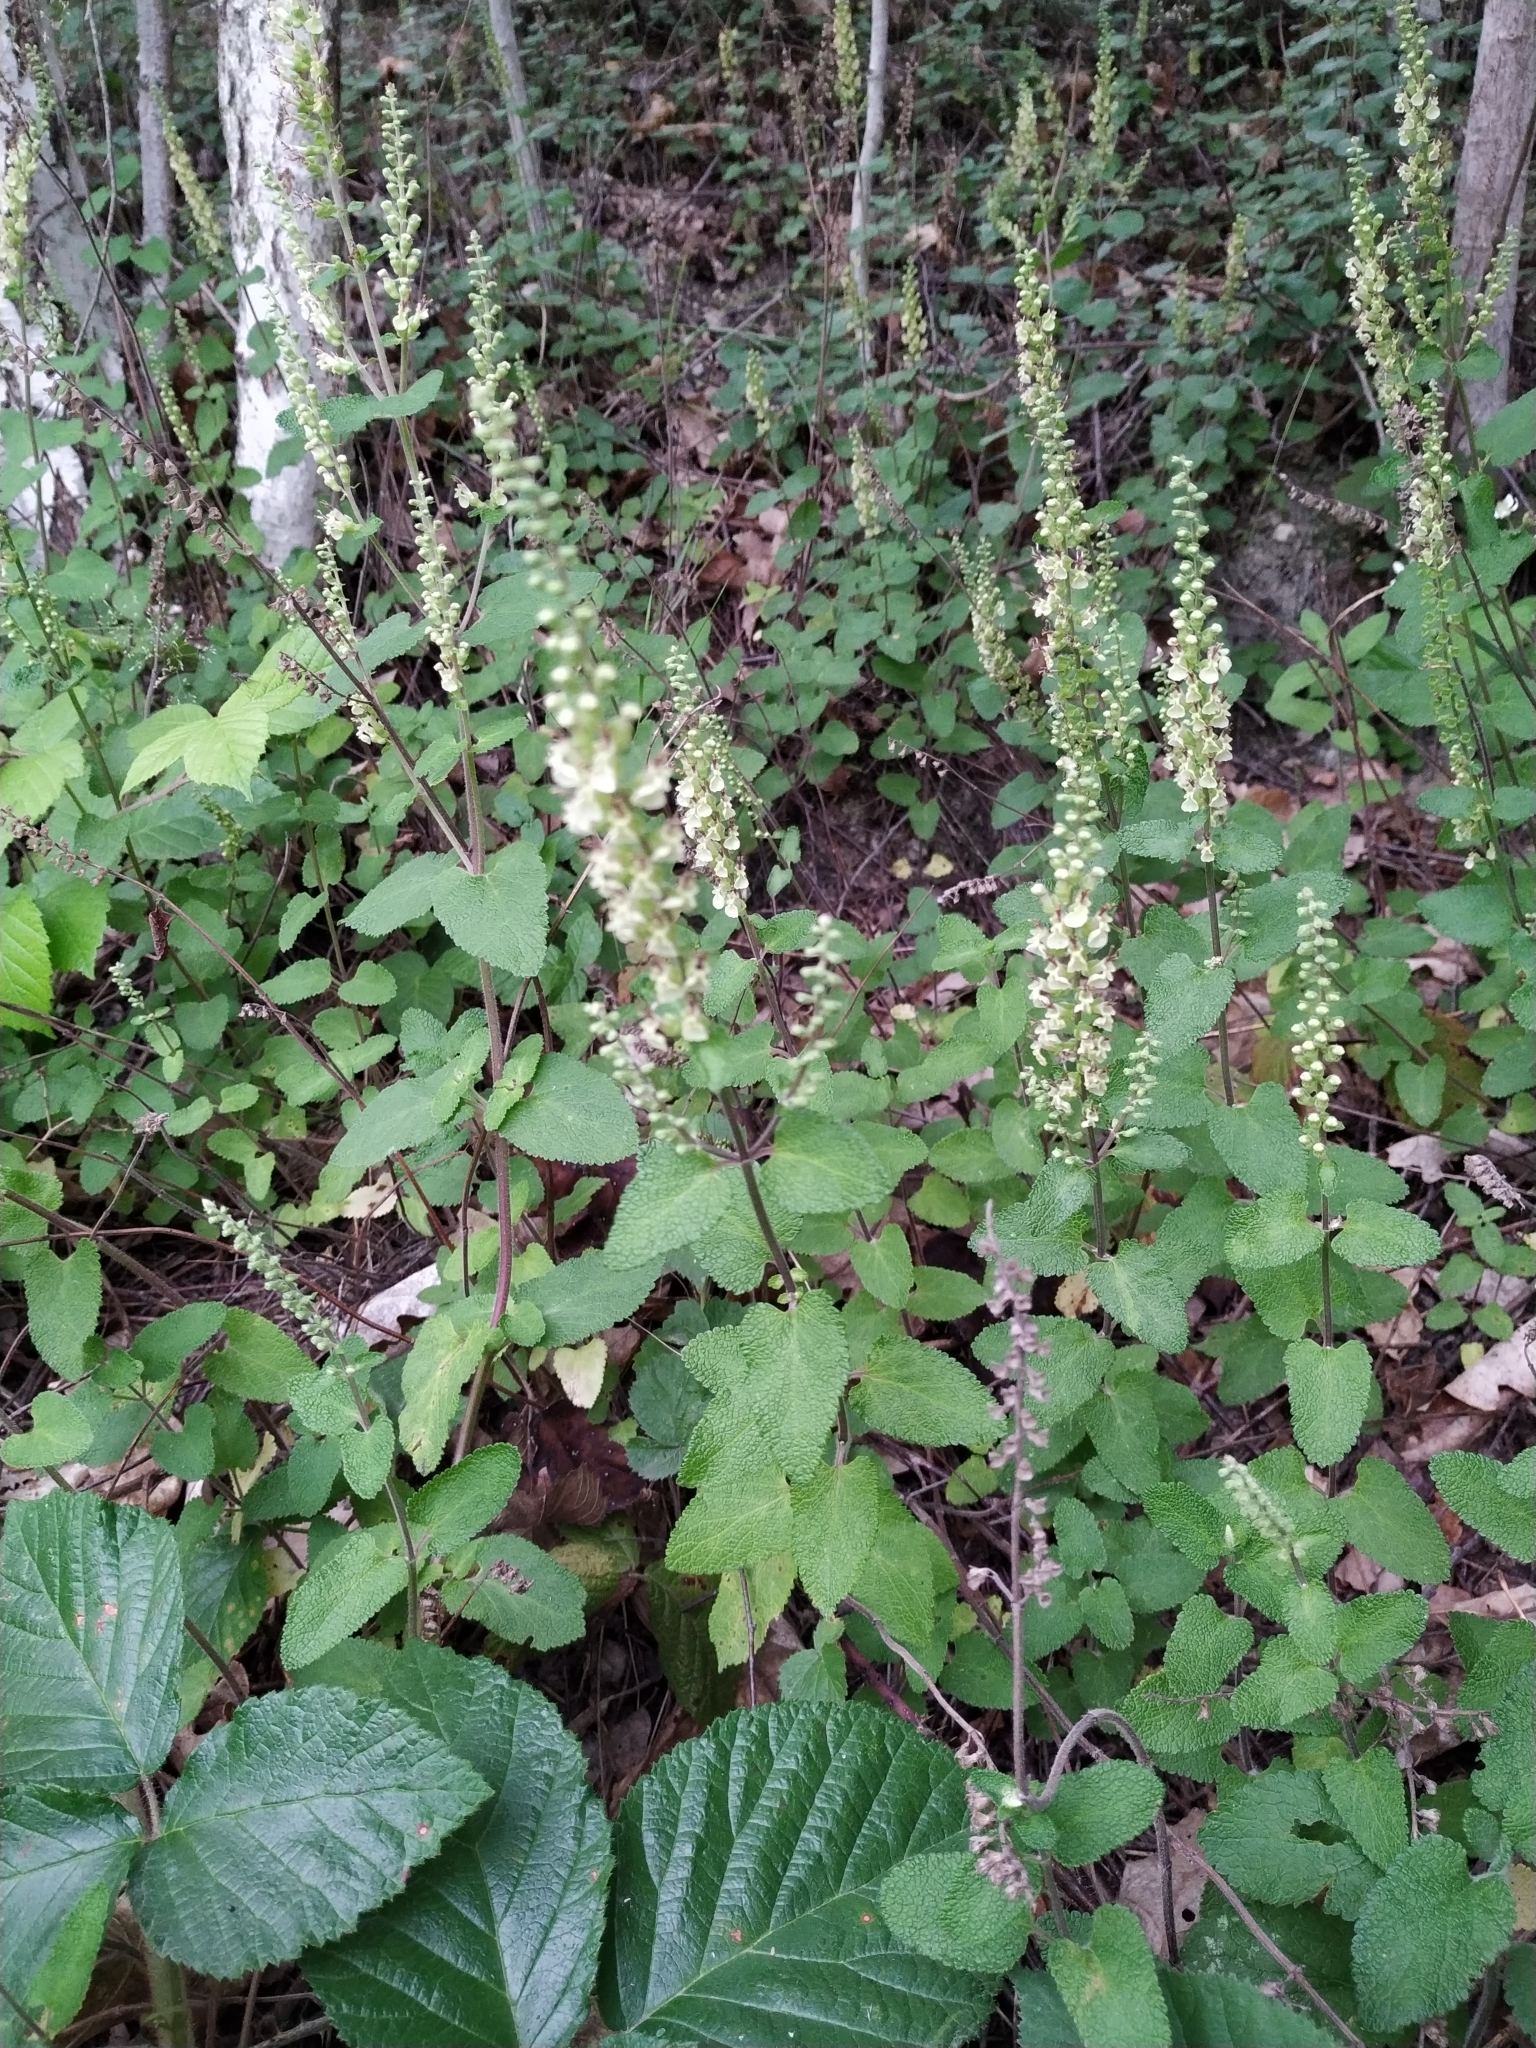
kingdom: Plantae
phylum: Tracheophyta
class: Magnoliopsida
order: Lamiales
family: Lamiaceae
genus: Teucrium
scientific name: Teucrium scorodonia
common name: Woodland germander
